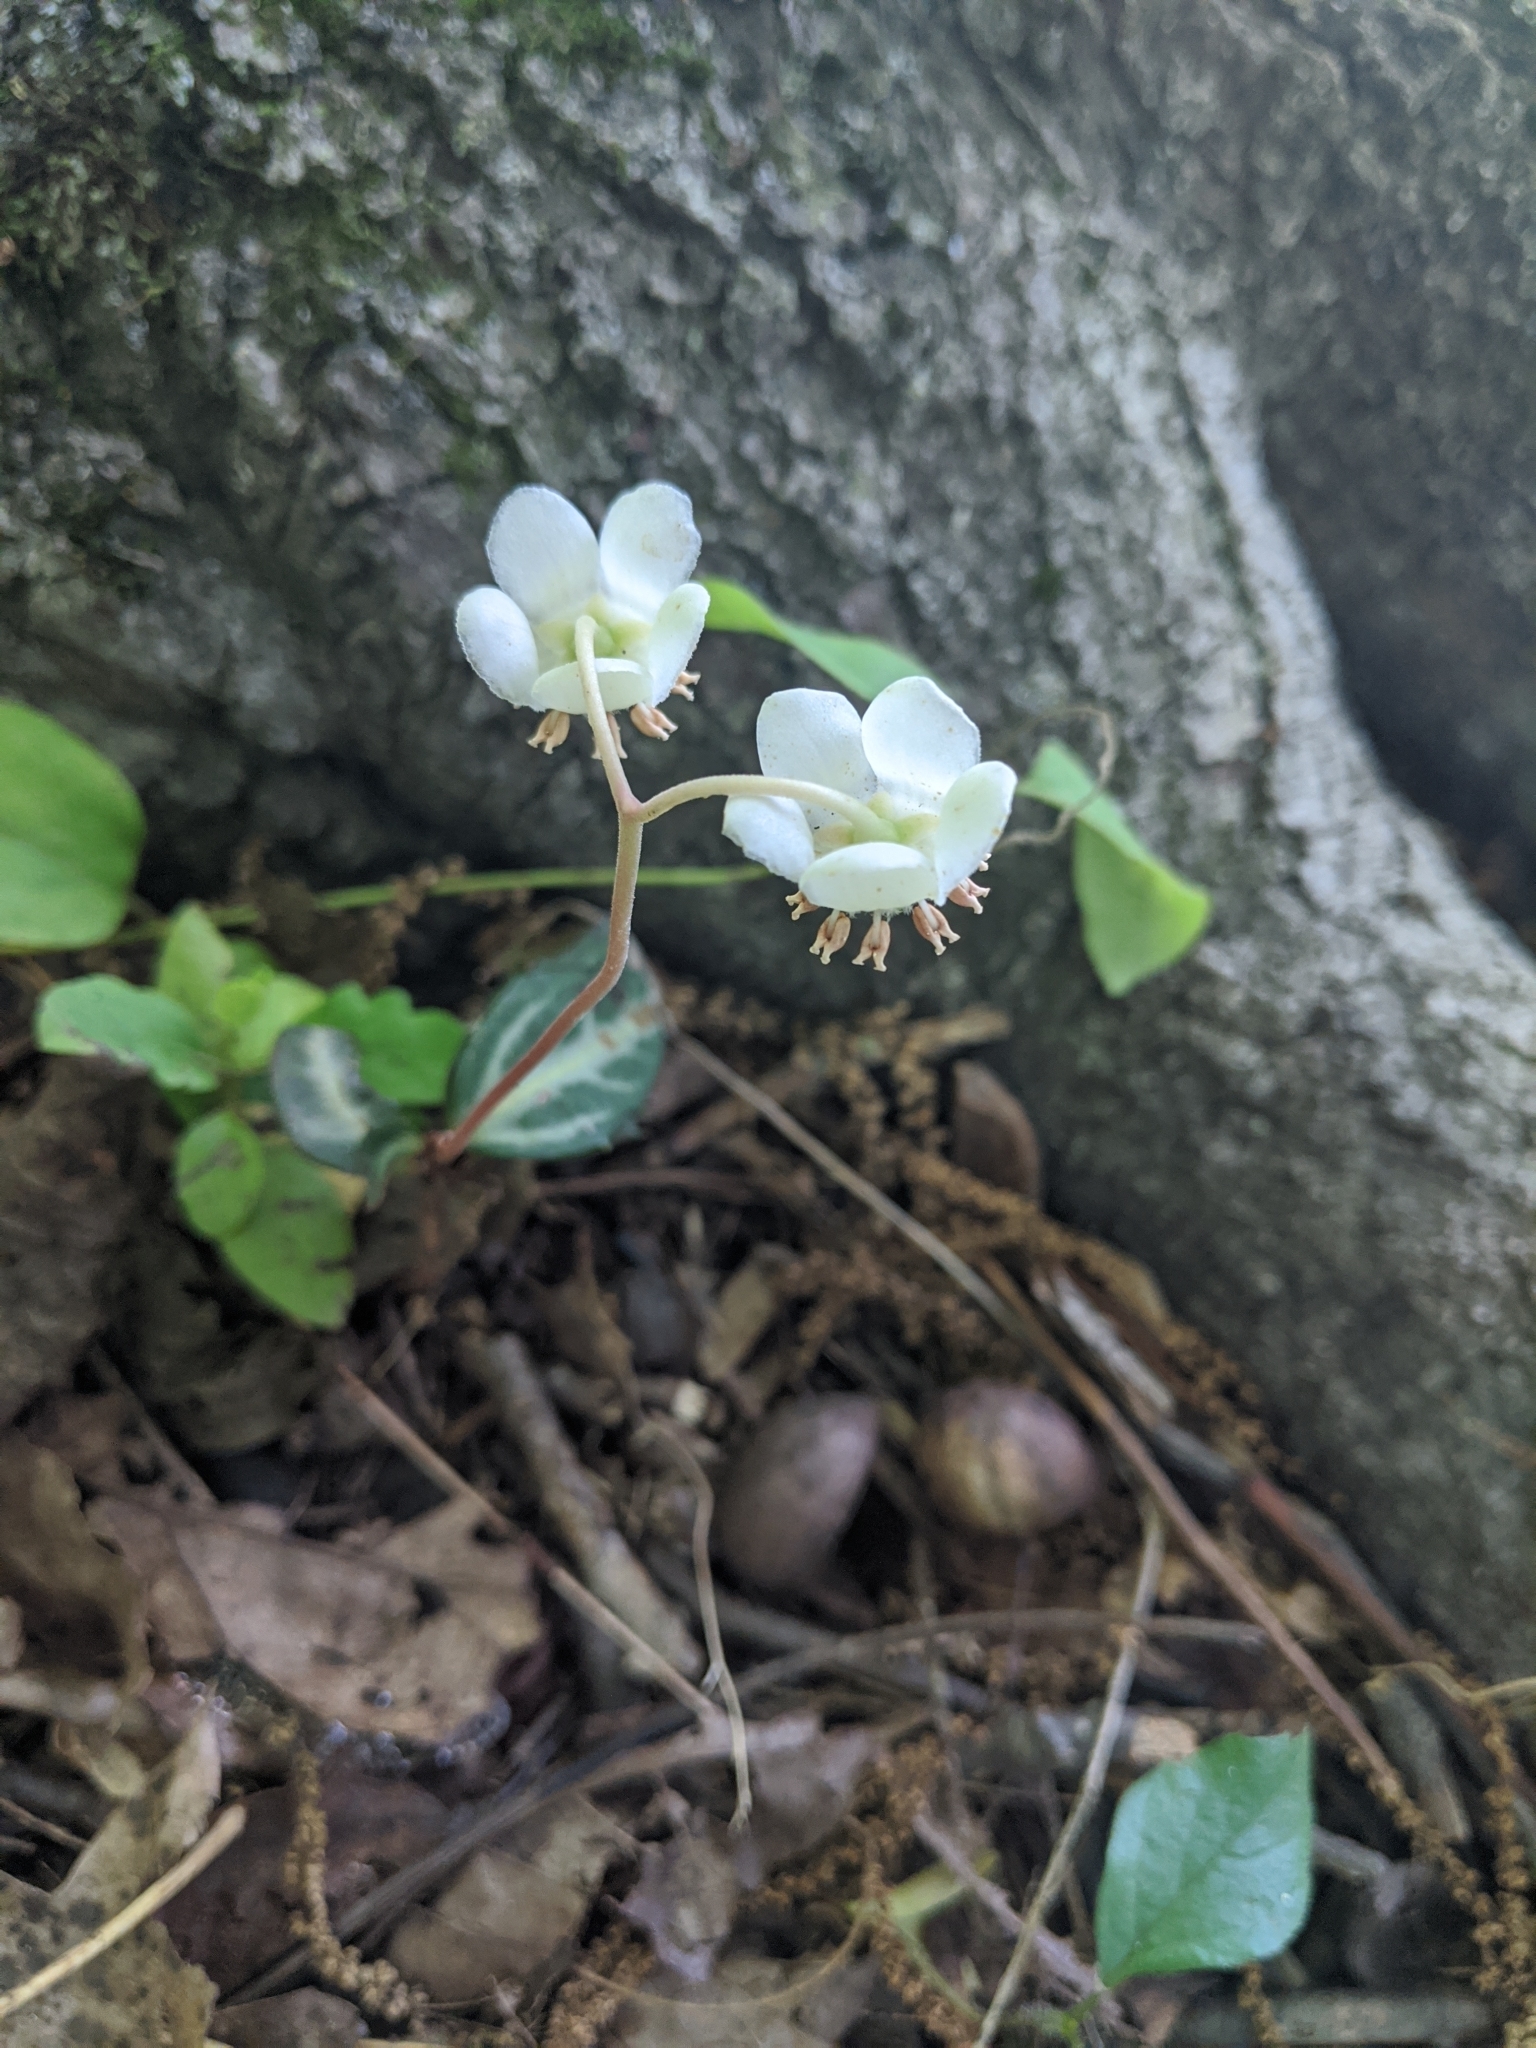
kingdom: Plantae
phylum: Tracheophyta
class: Magnoliopsida
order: Ericales
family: Ericaceae
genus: Chimaphila
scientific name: Chimaphila maculata
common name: Spotted pipsissewa
